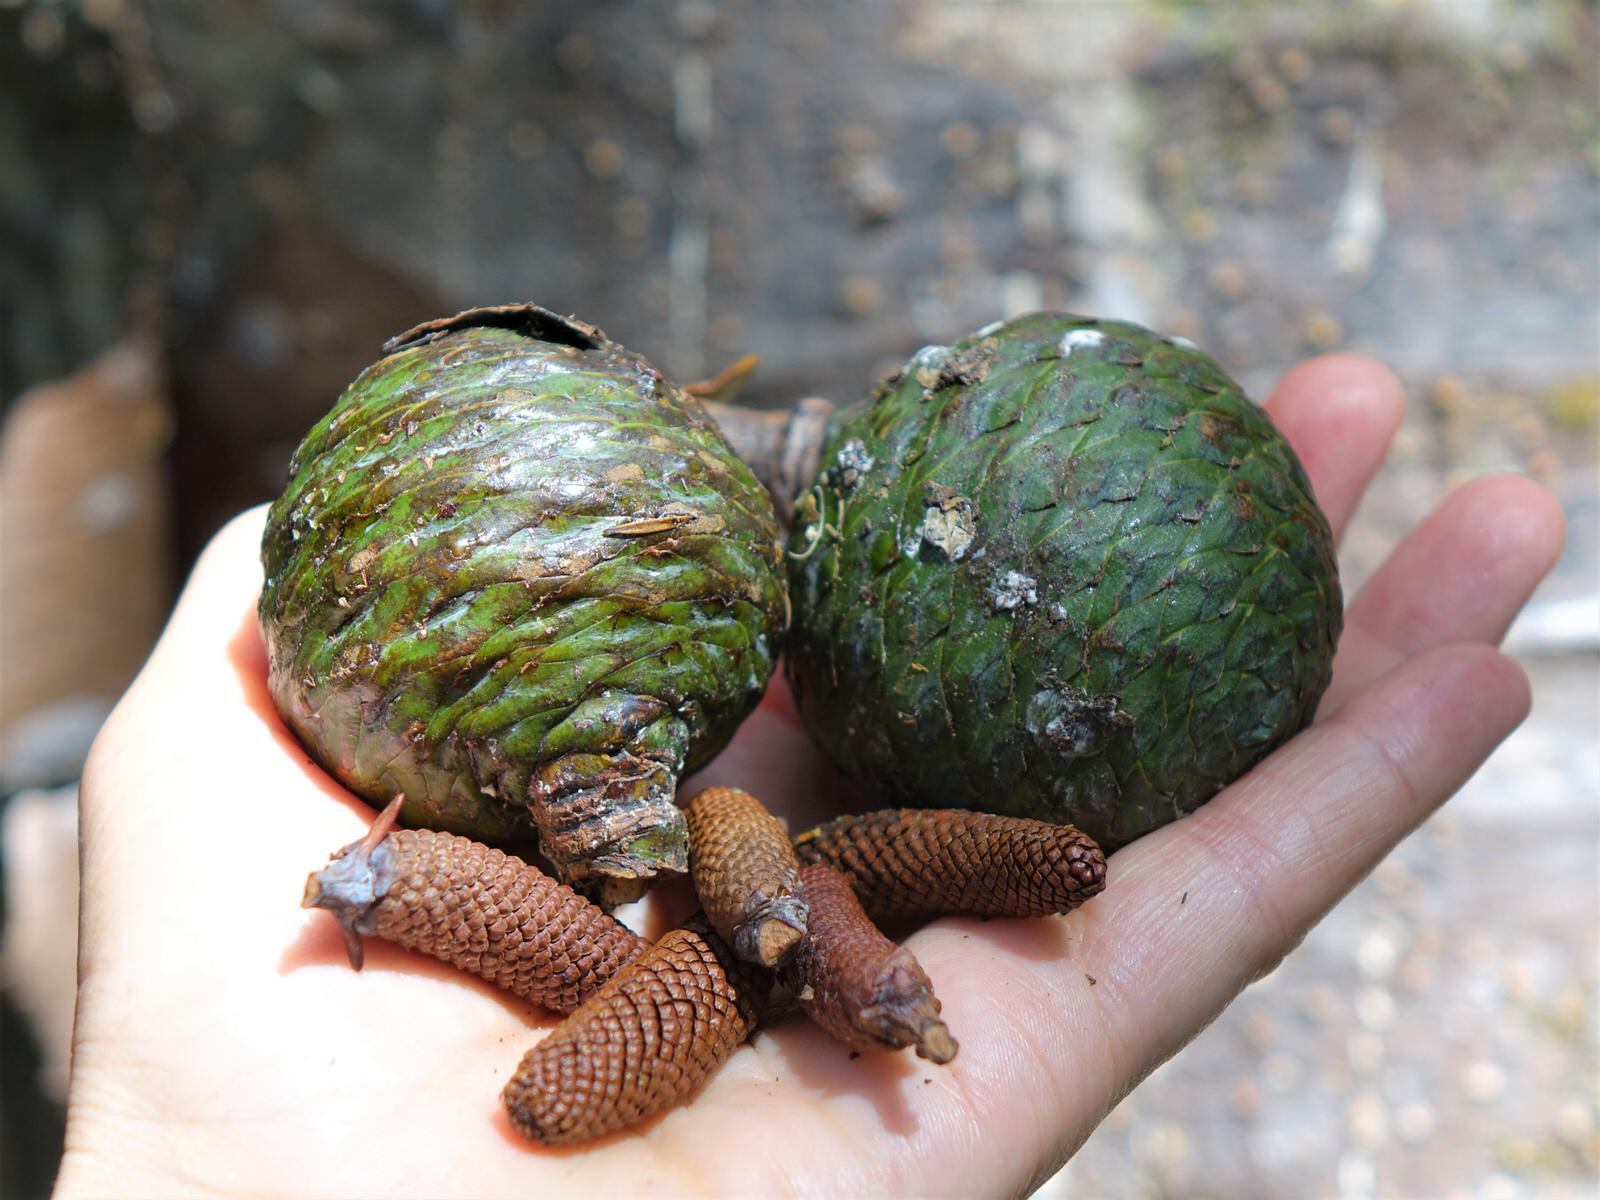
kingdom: Plantae
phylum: Tracheophyta
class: Pinopsida
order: Pinales
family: Araucariaceae
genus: Agathis
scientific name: Agathis australis
